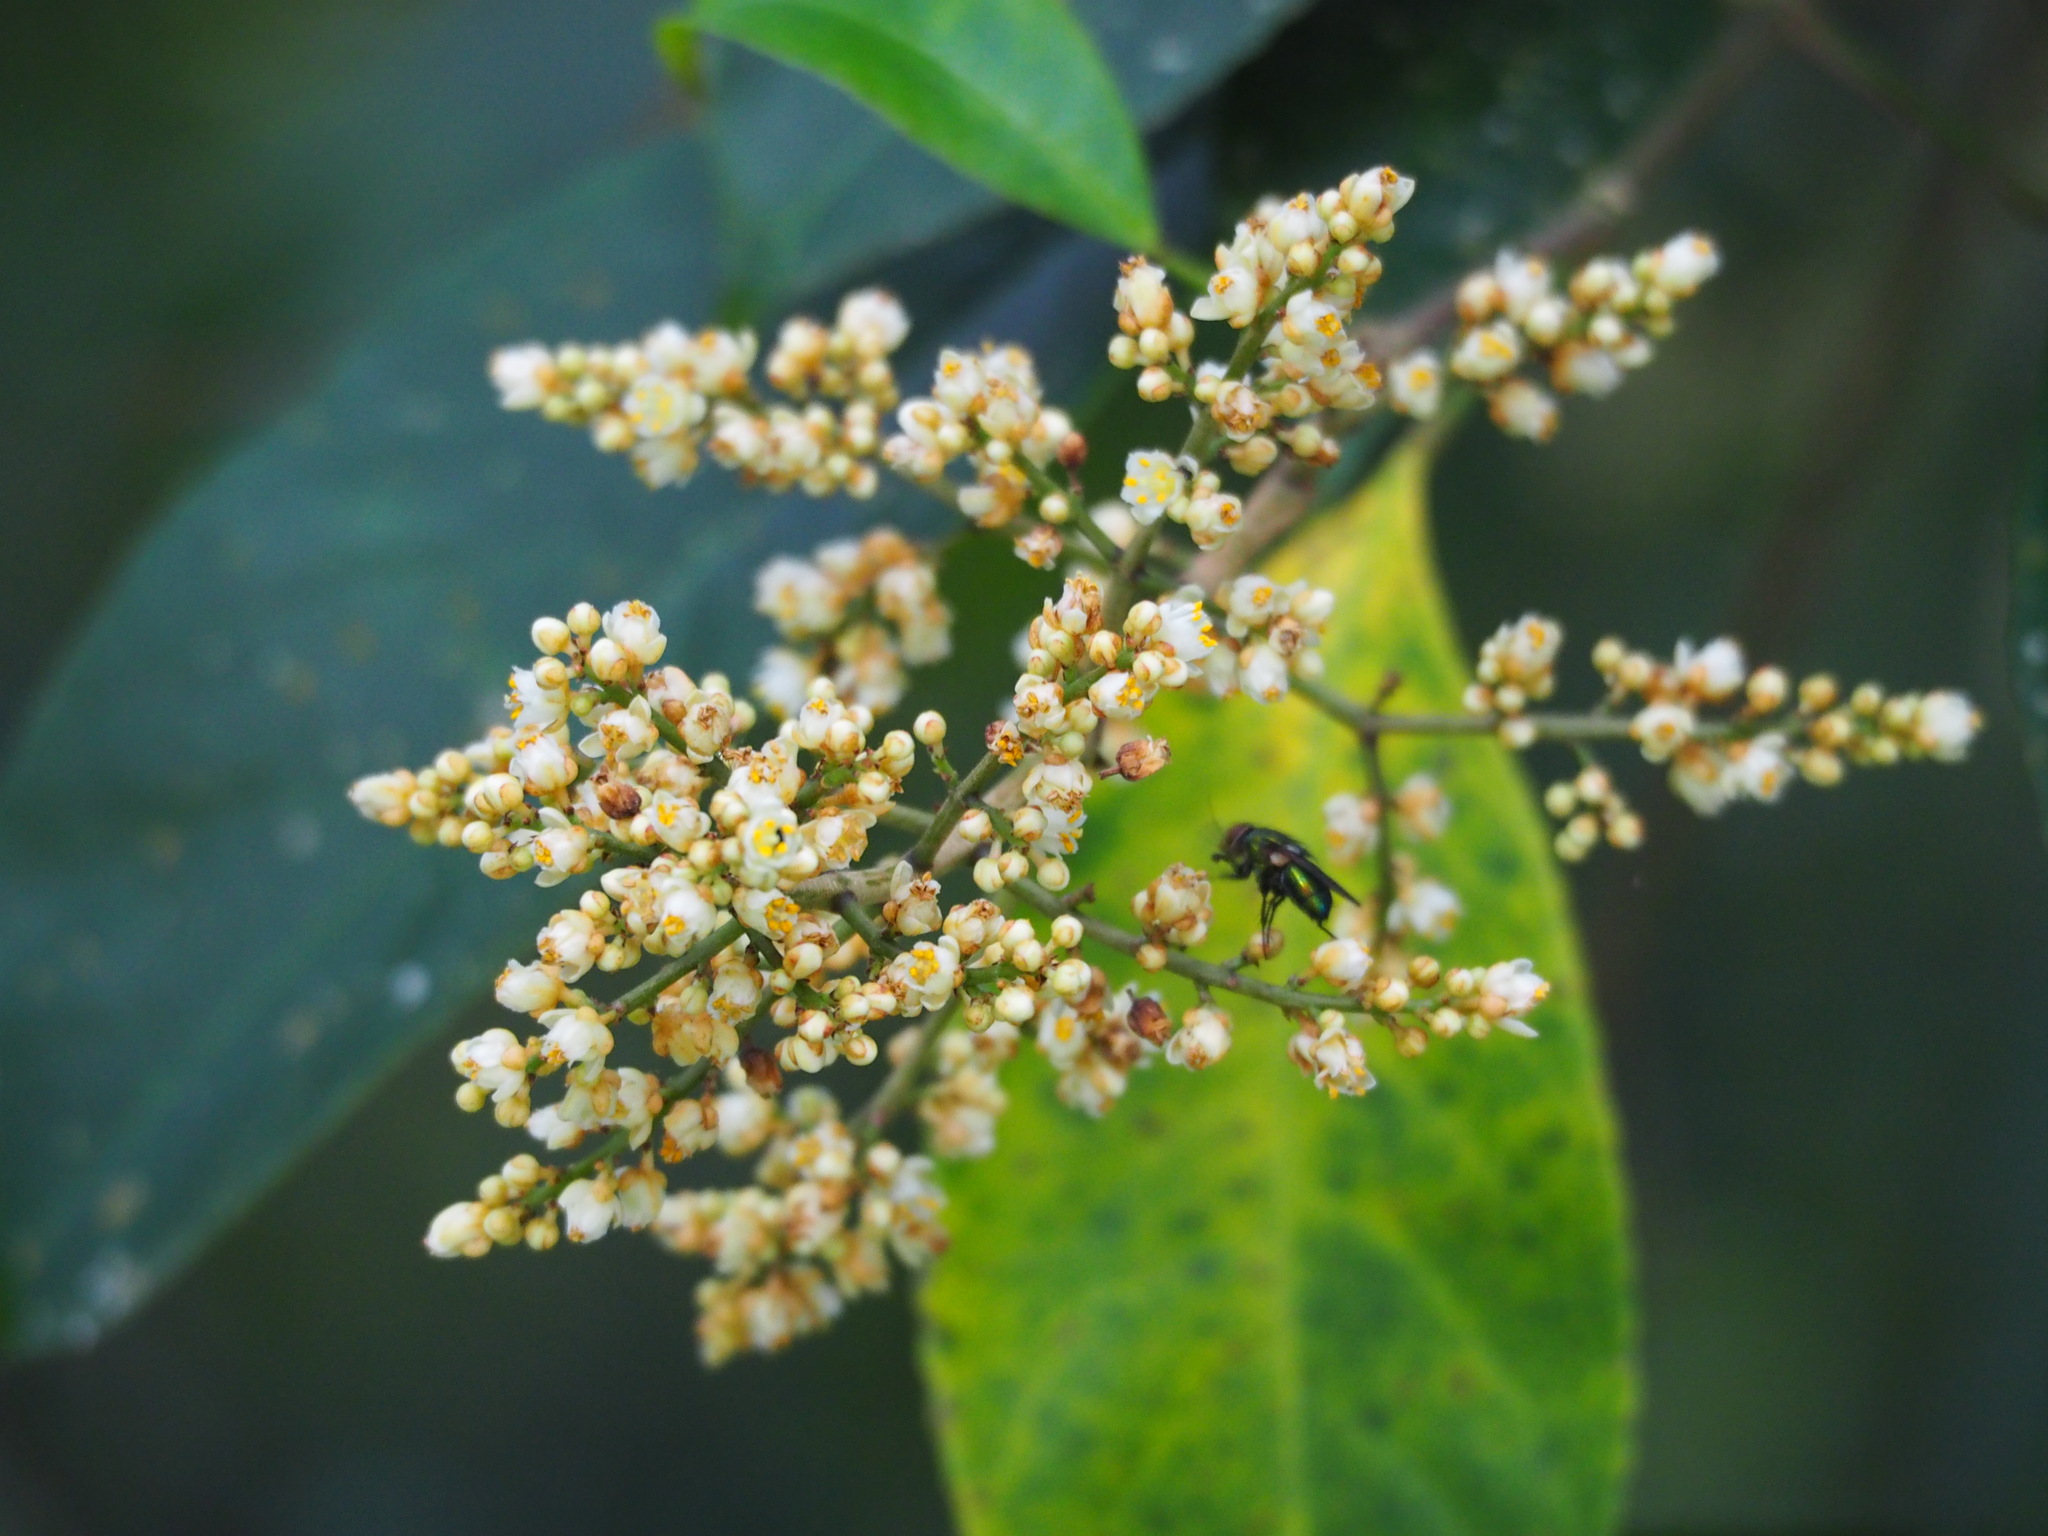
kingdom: Plantae
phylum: Tracheophyta
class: Magnoliopsida
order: Crossosomatales
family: Staphyleaceae
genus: Turpinia
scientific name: Turpinia formosana
